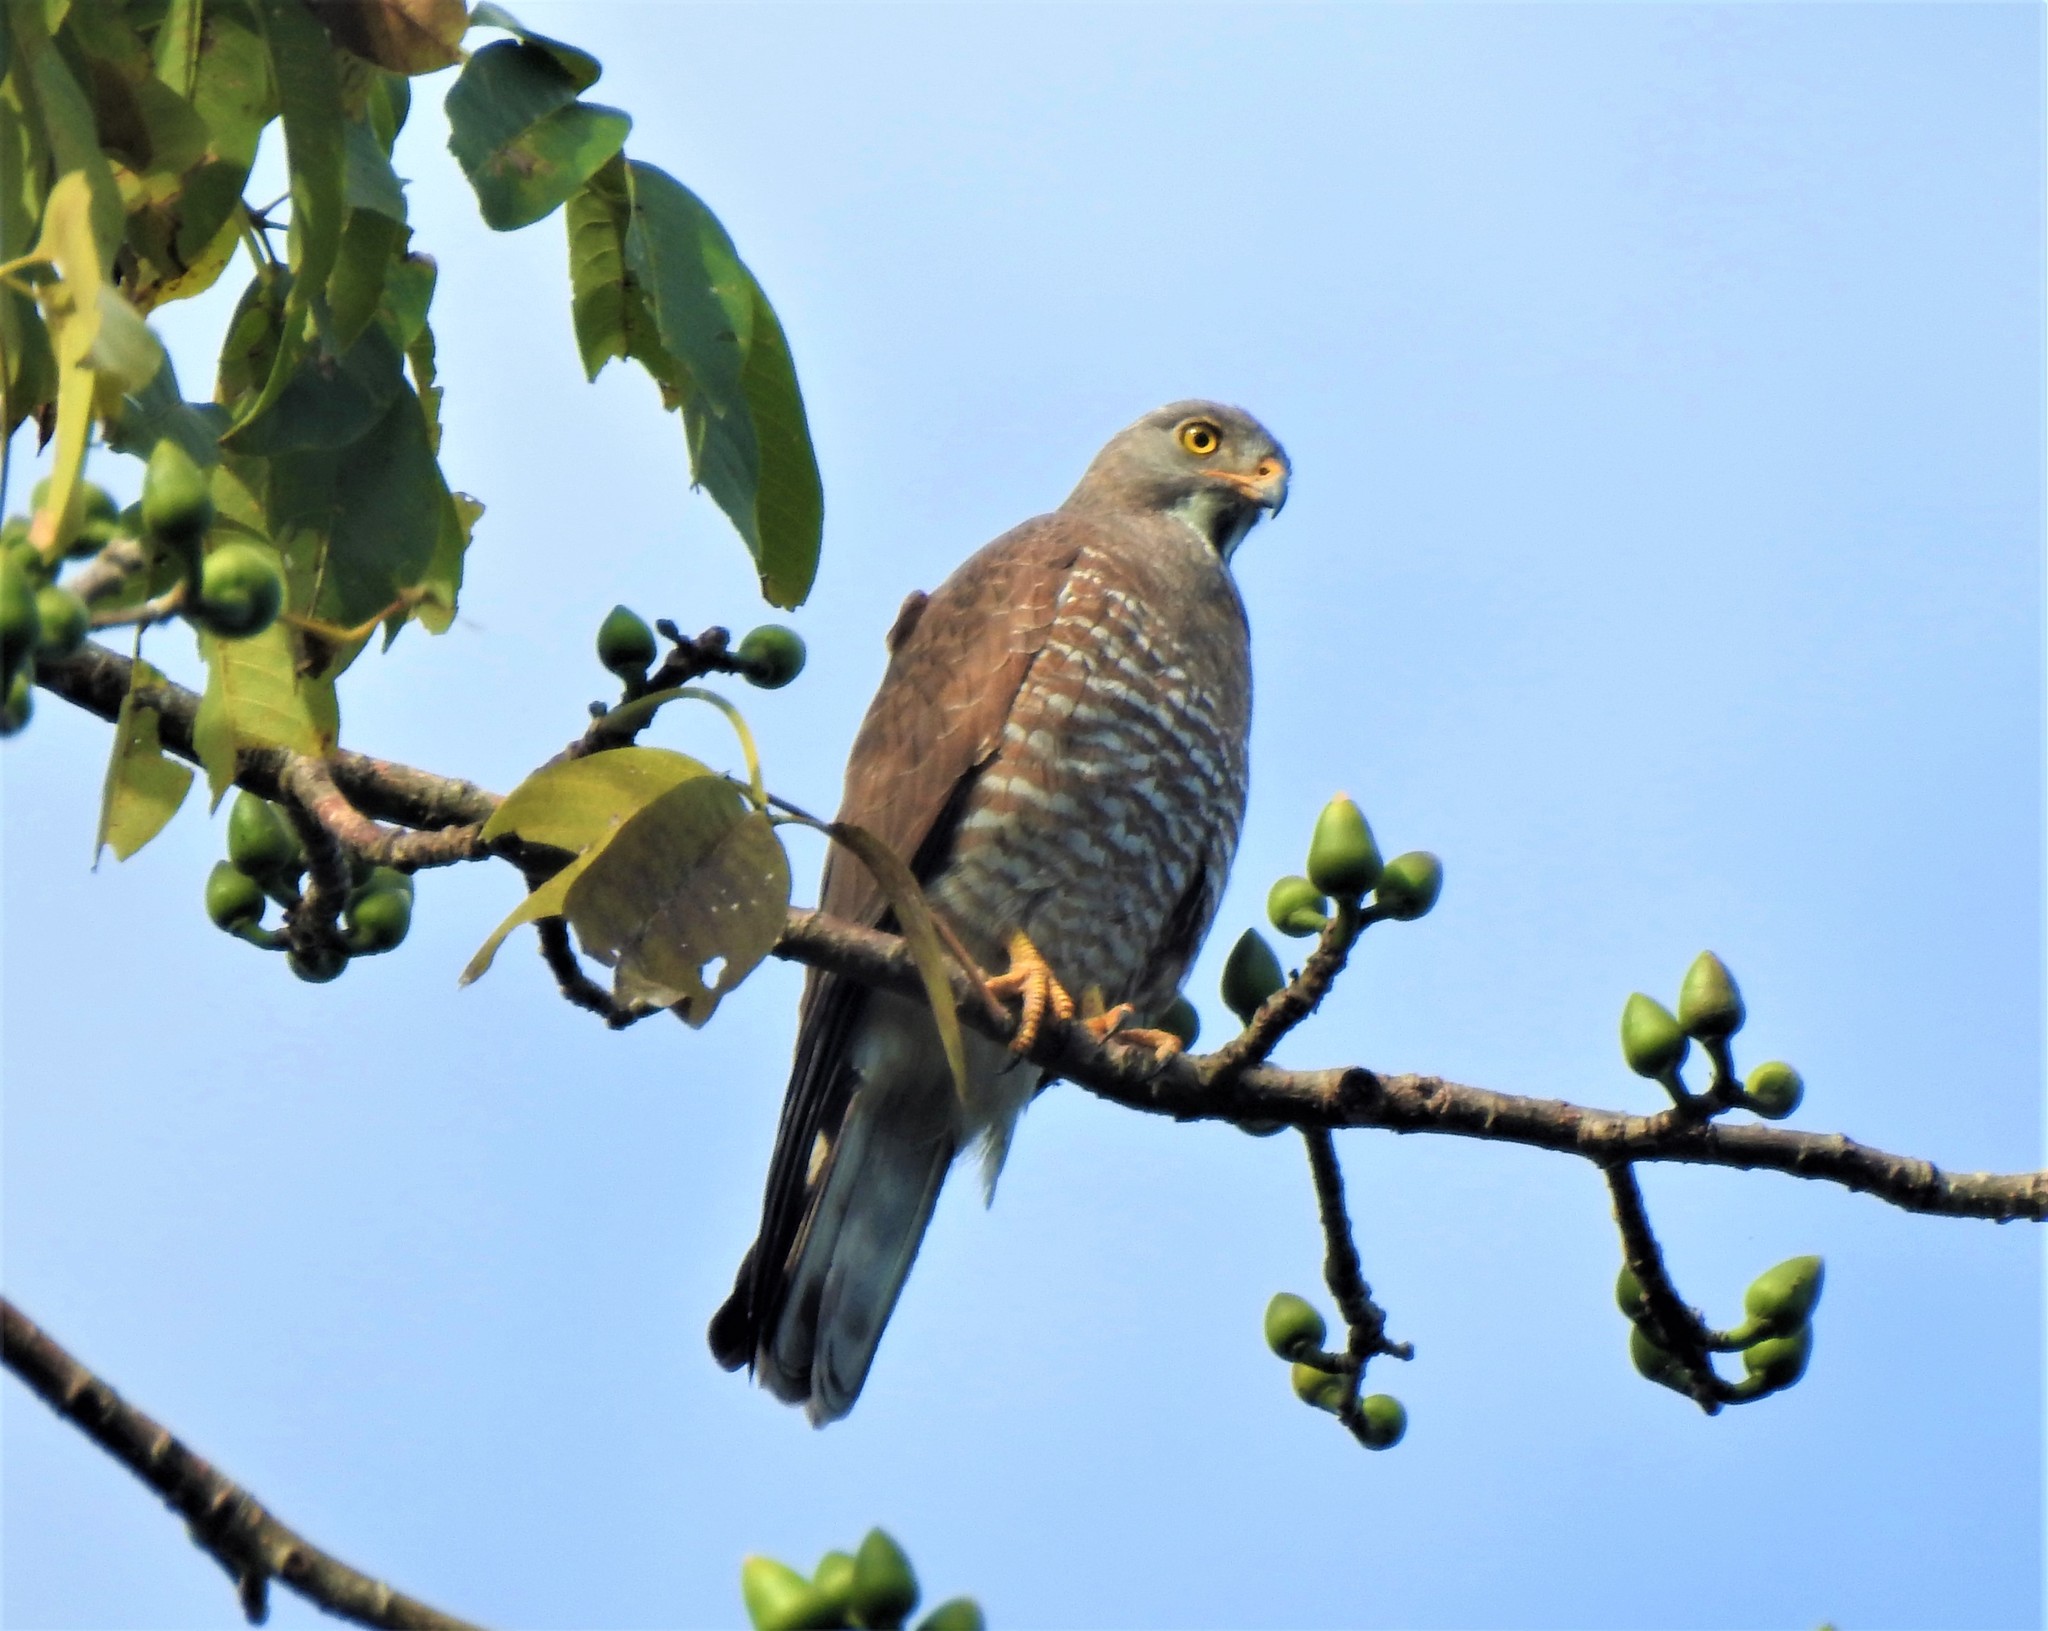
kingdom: Animalia
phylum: Chordata
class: Aves
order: Accipitriformes
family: Accipitridae
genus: Butastur
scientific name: Butastur indicus
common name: Grey-faced buzzard
